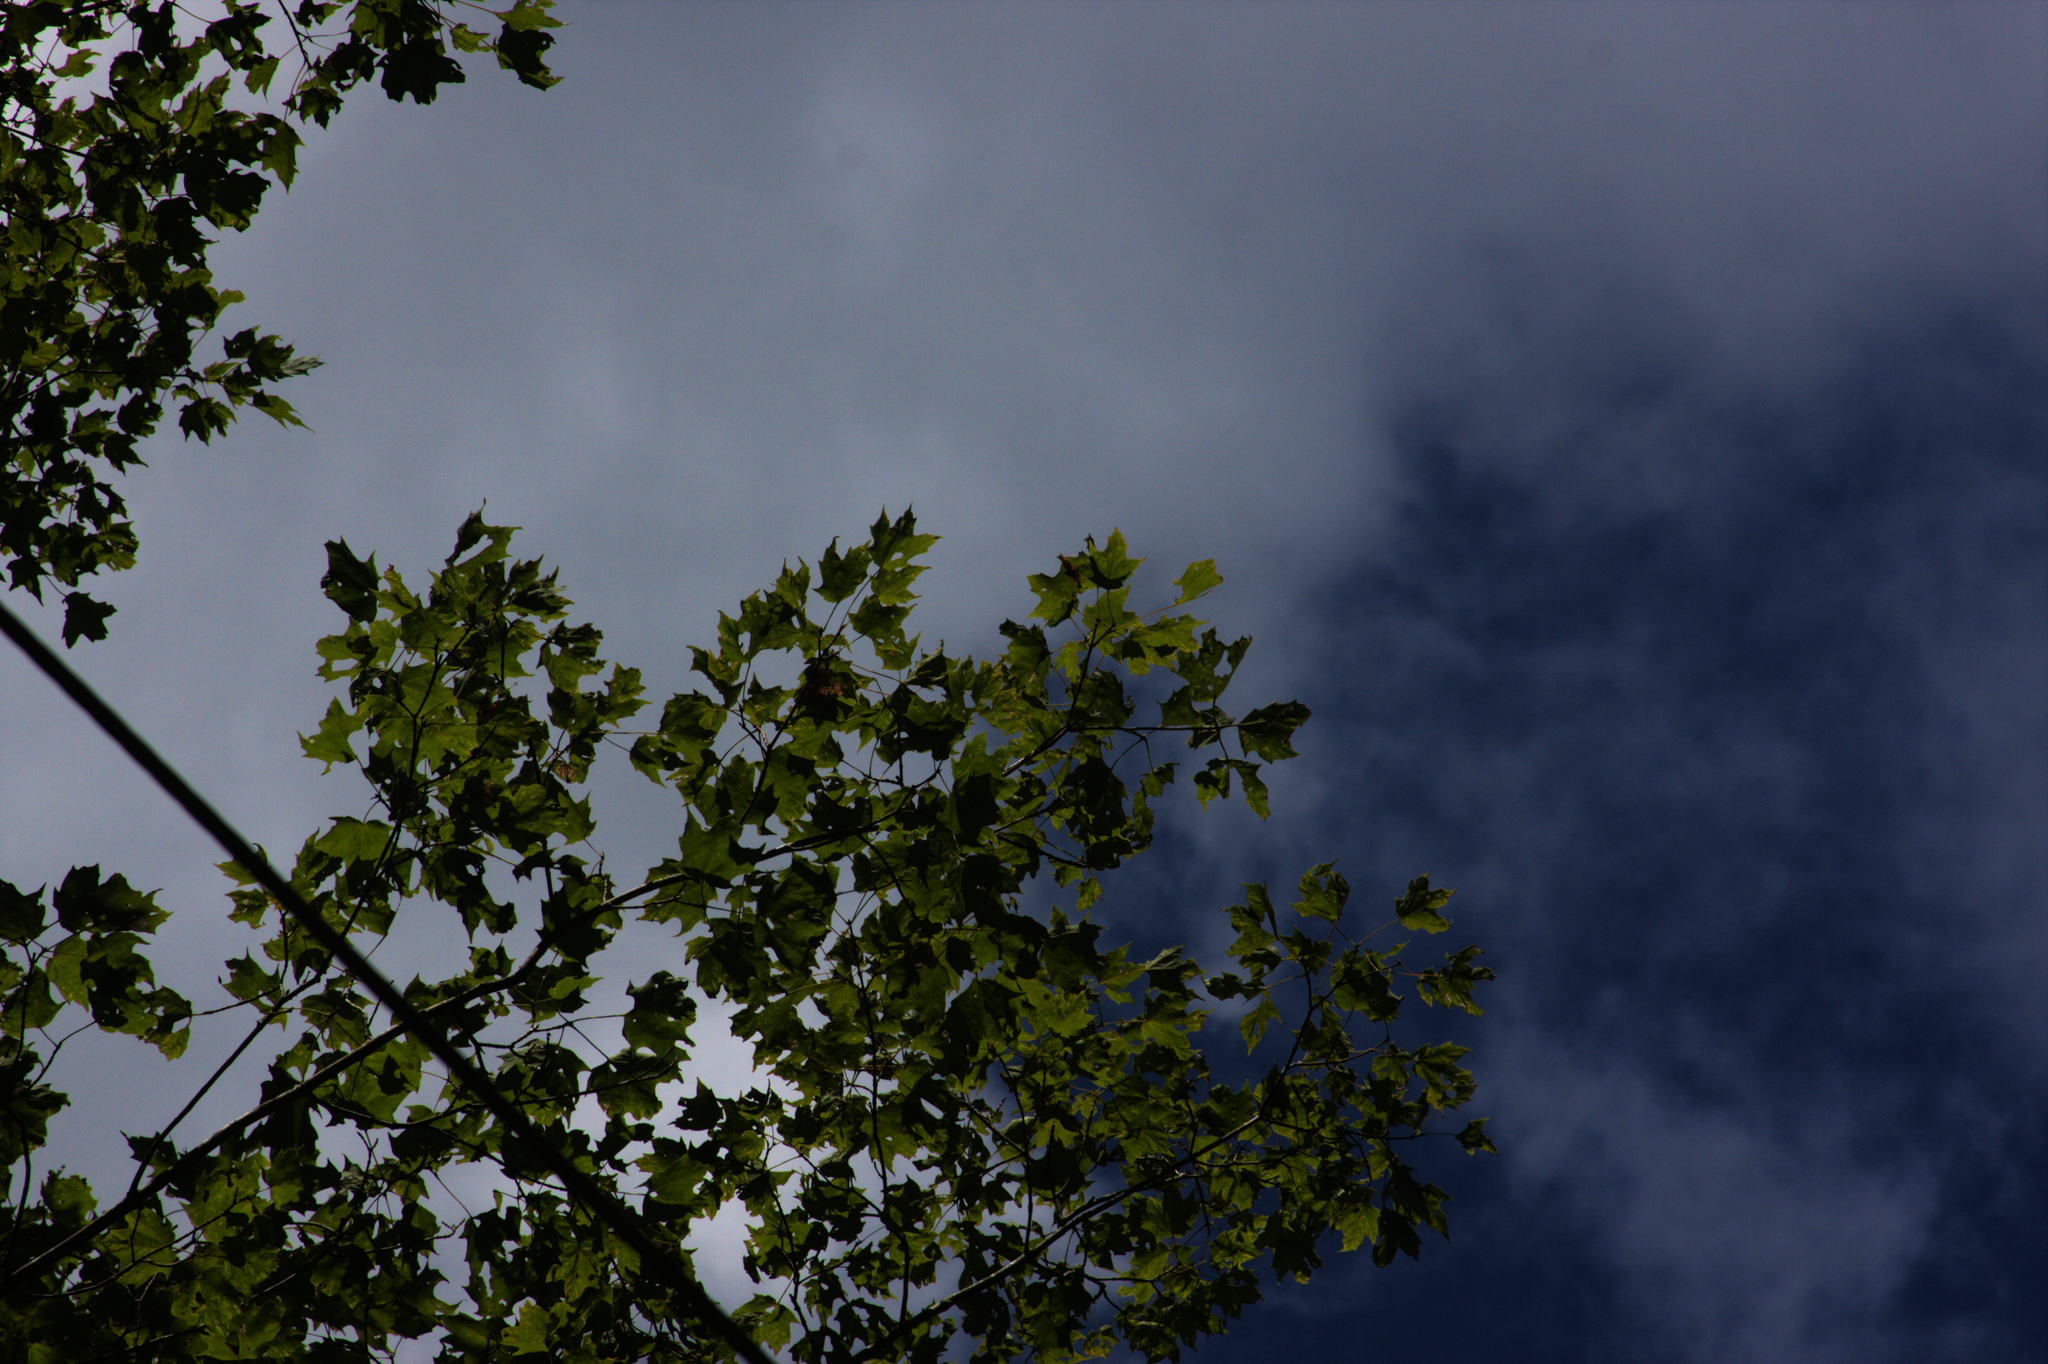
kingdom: Plantae
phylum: Tracheophyta
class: Magnoliopsida
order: Sapindales
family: Sapindaceae
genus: Acer
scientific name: Acer saccharum
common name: Sugar maple
